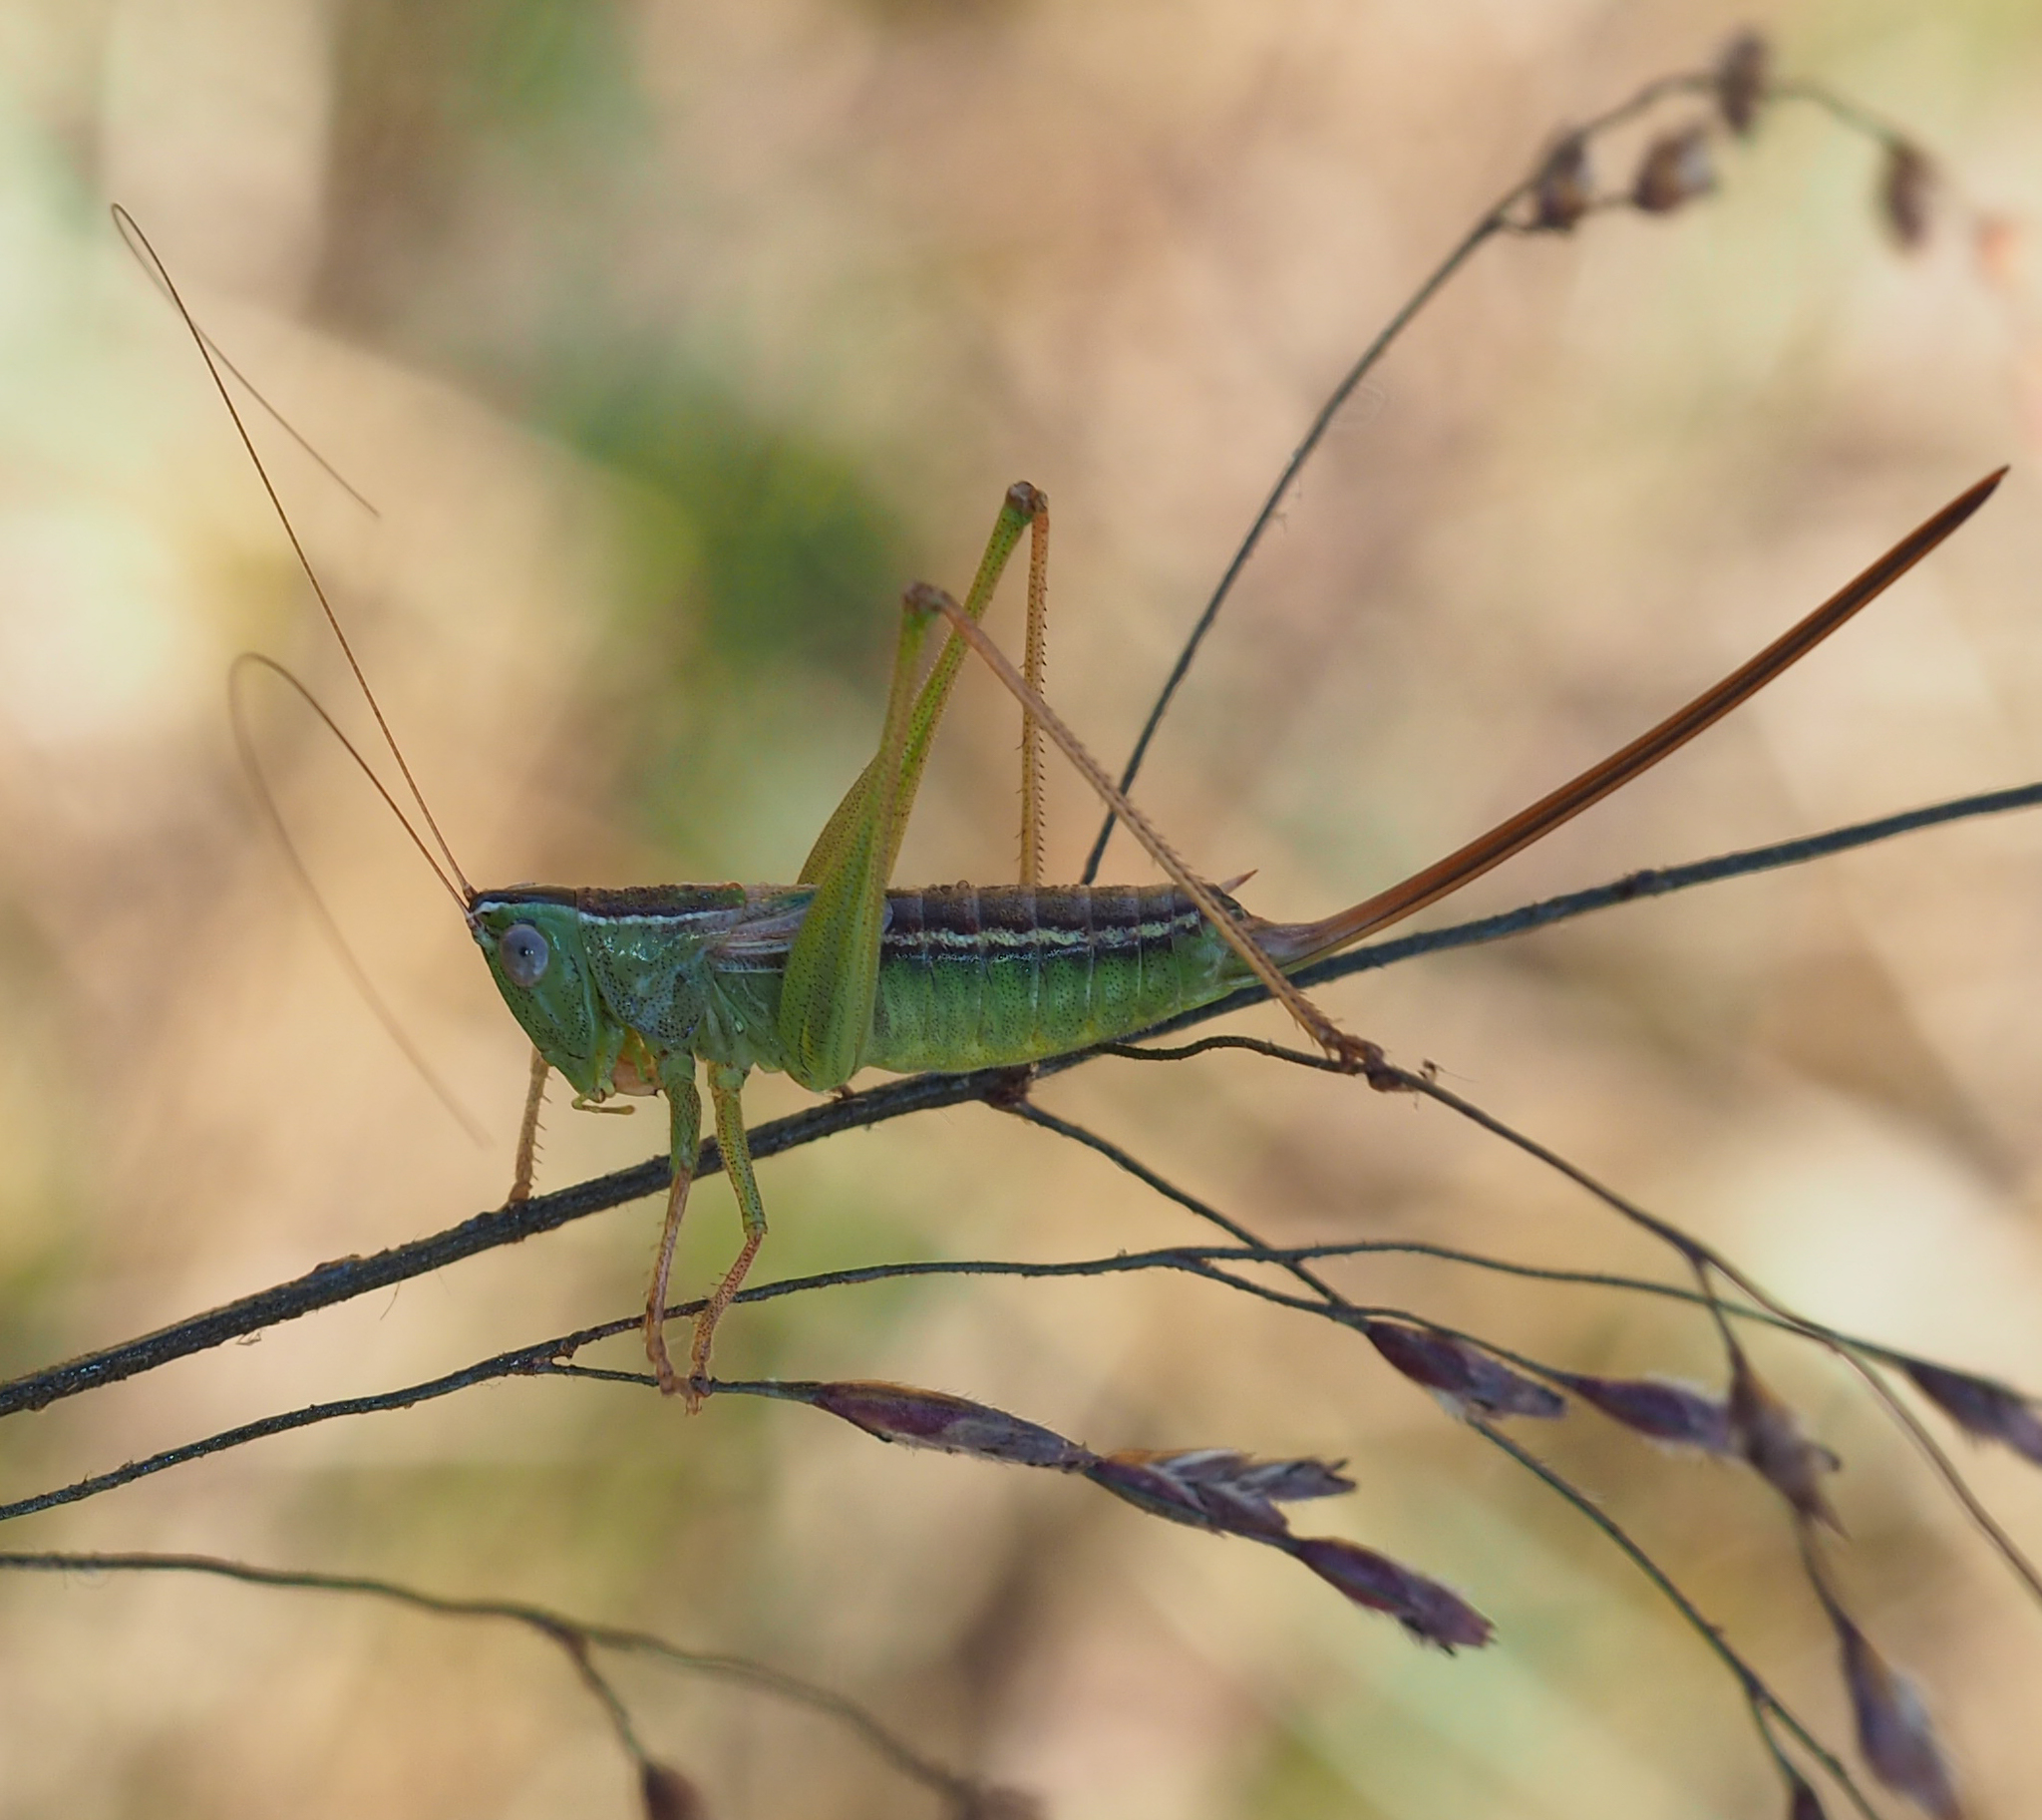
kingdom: Animalia
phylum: Arthropoda
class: Insecta
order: Orthoptera
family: Tettigoniidae
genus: Conocephalus
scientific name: Conocephalus strictus
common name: Straight-lanced katydid
